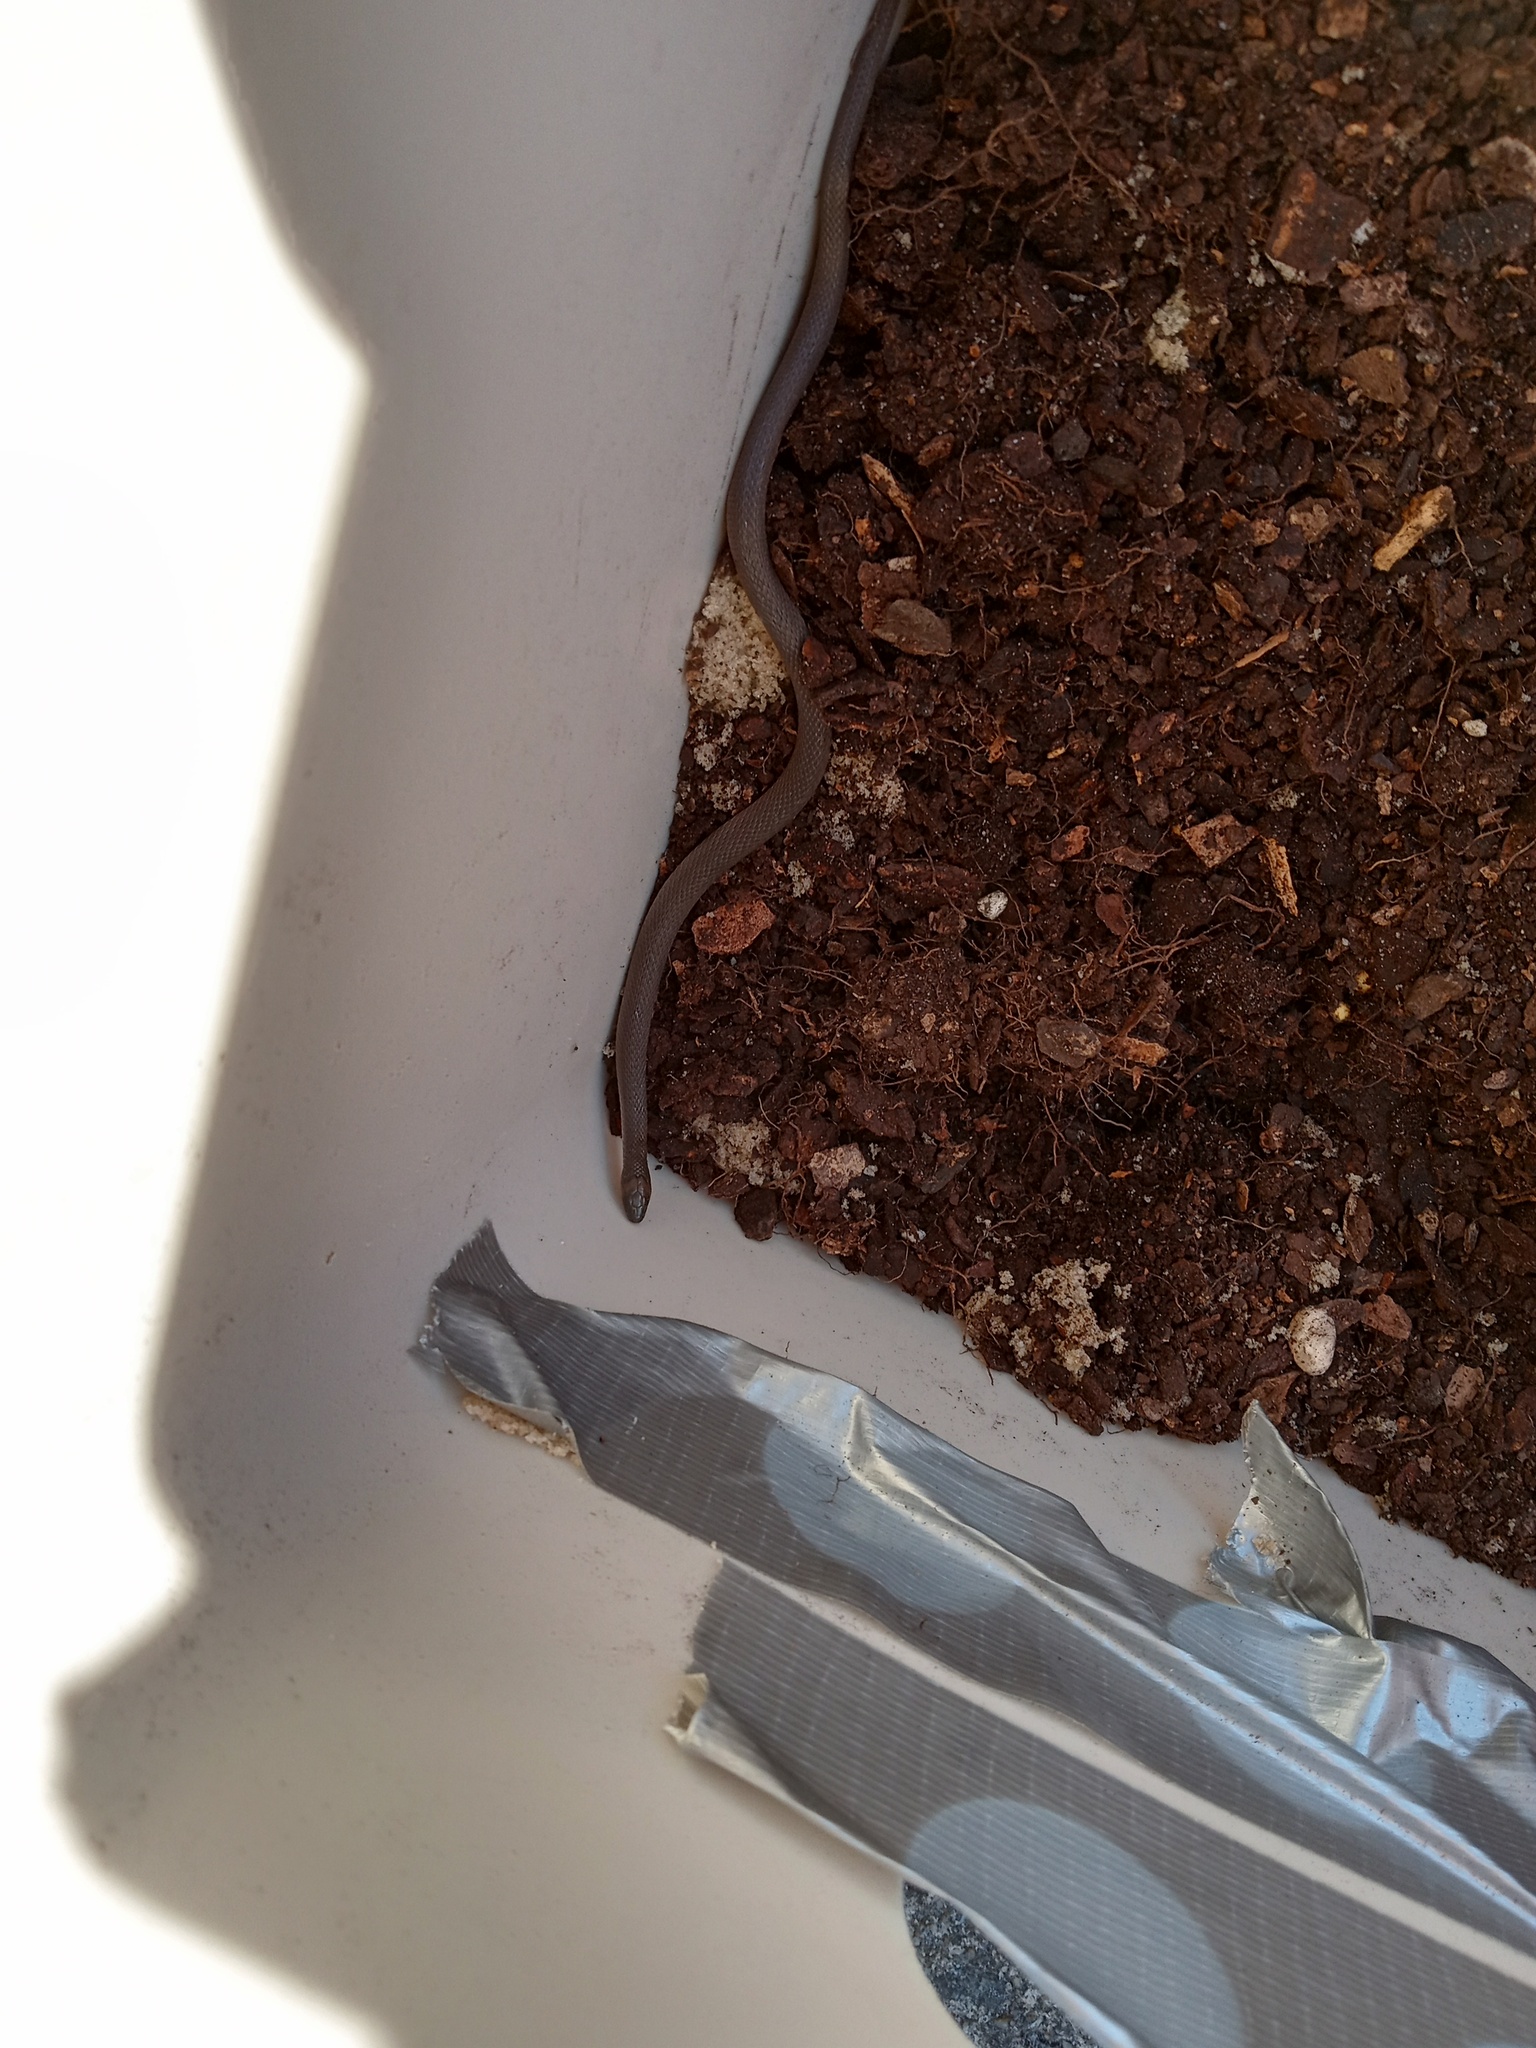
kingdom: Animalia
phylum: Chordata
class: Squamata
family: Colubridae
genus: Haldea
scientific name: Haldea striatula
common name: Rough earth snake
